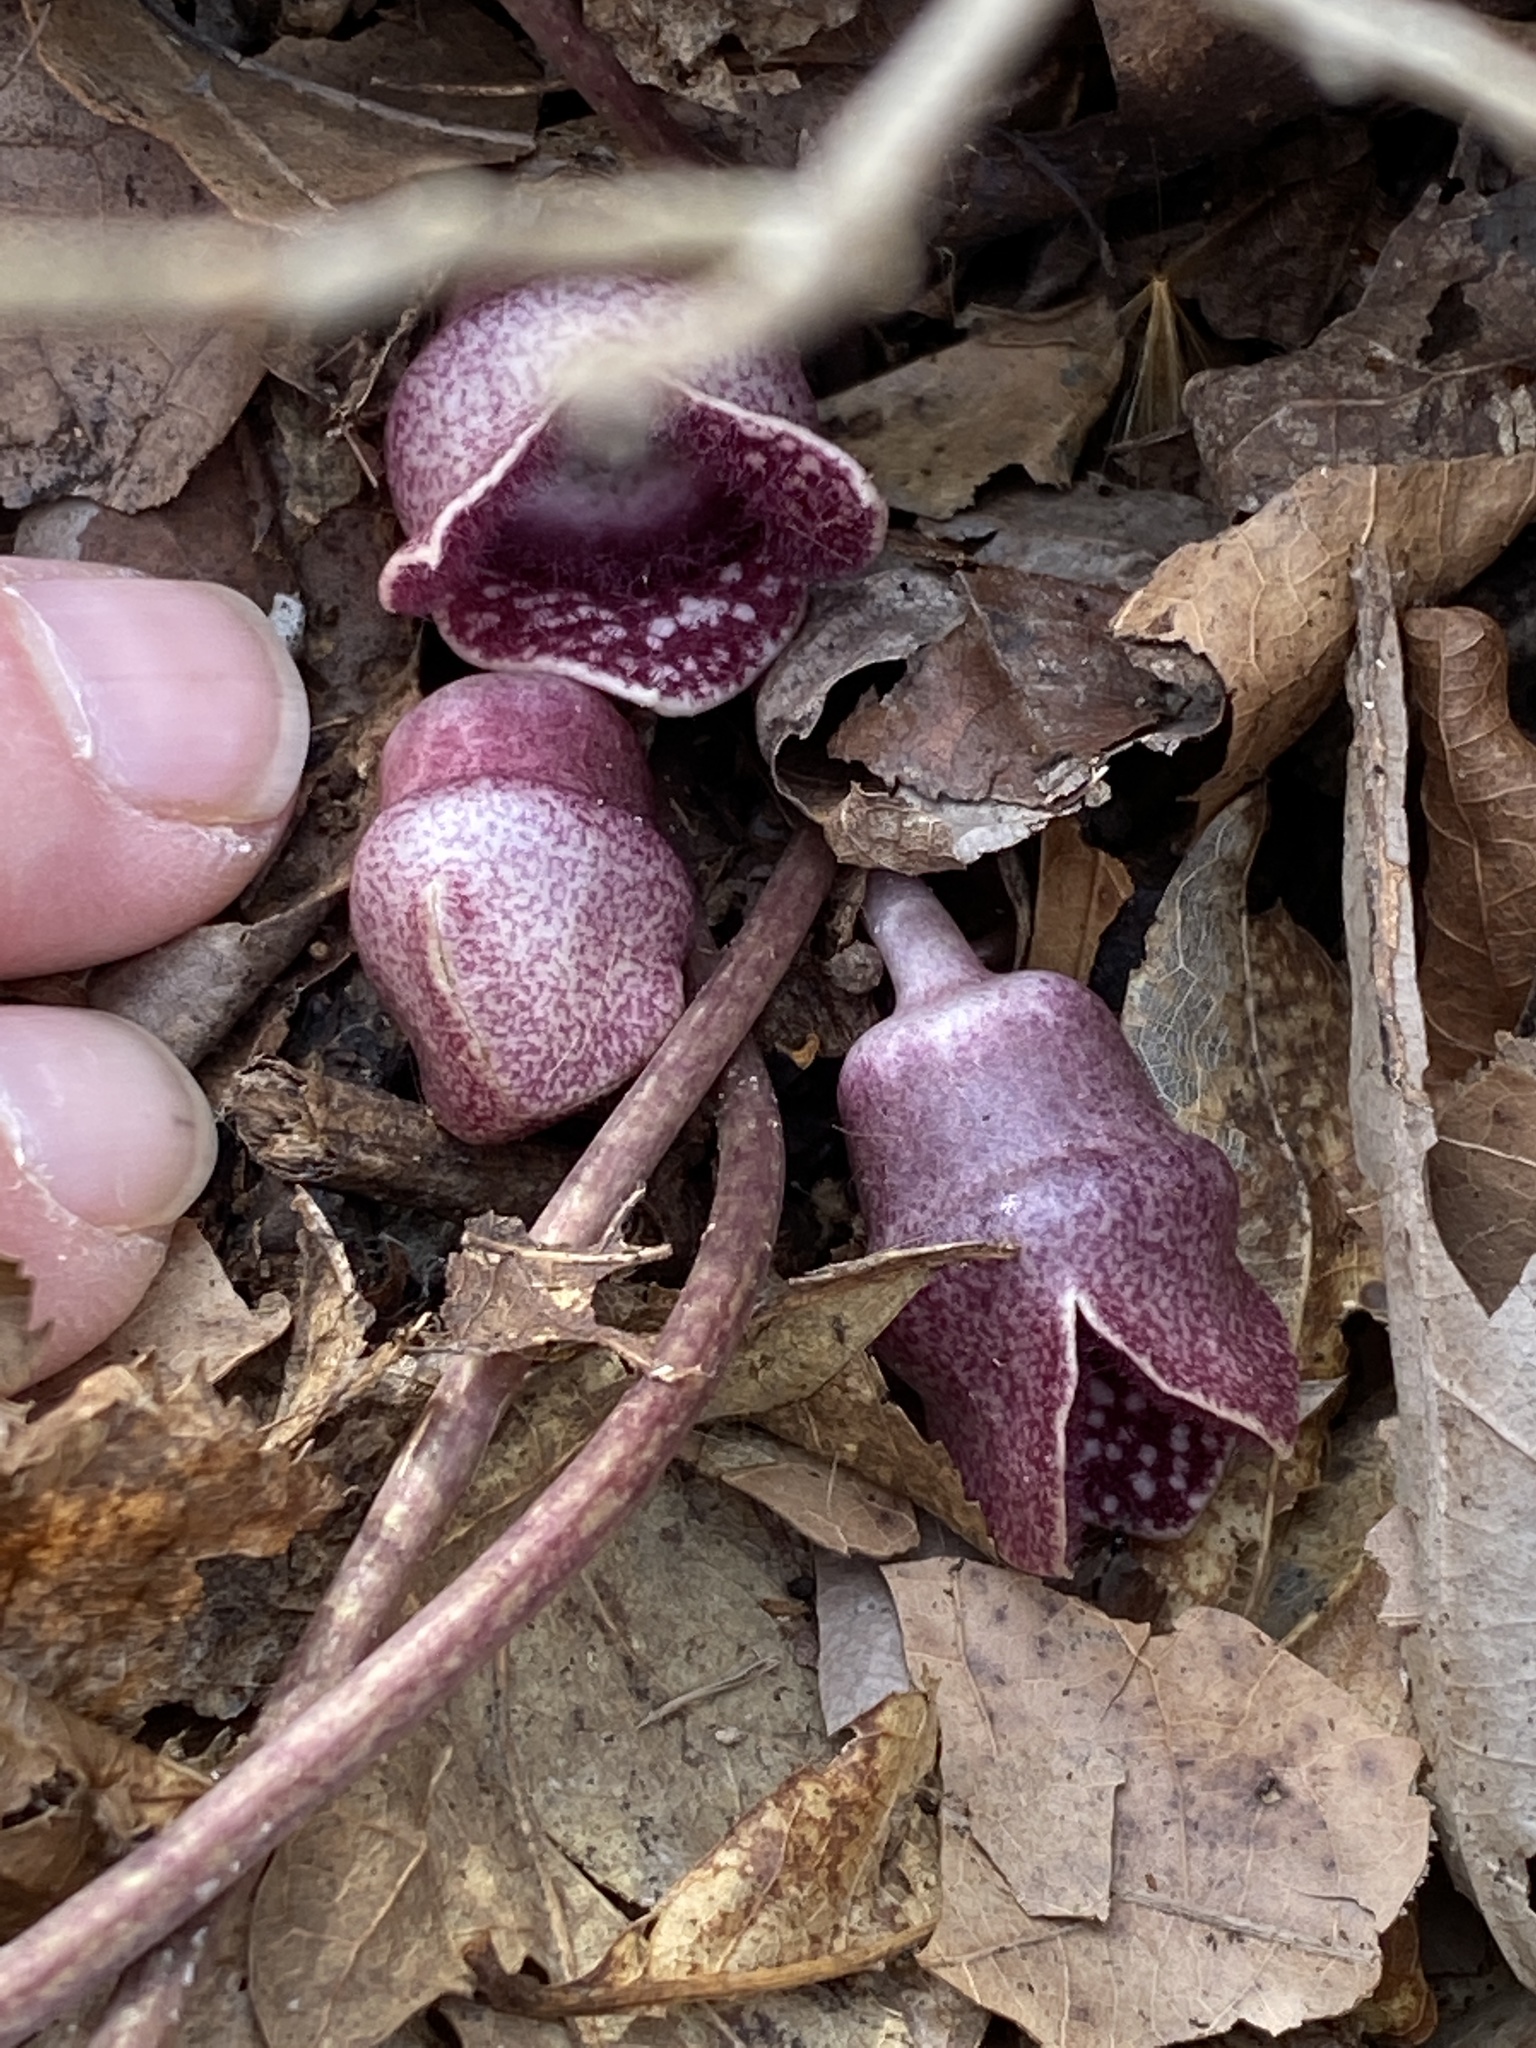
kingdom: Plantae
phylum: Tracheophyta
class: Magnoliopsida
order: Piperales
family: Aristolochiaceae
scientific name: Aristolochiaceae
